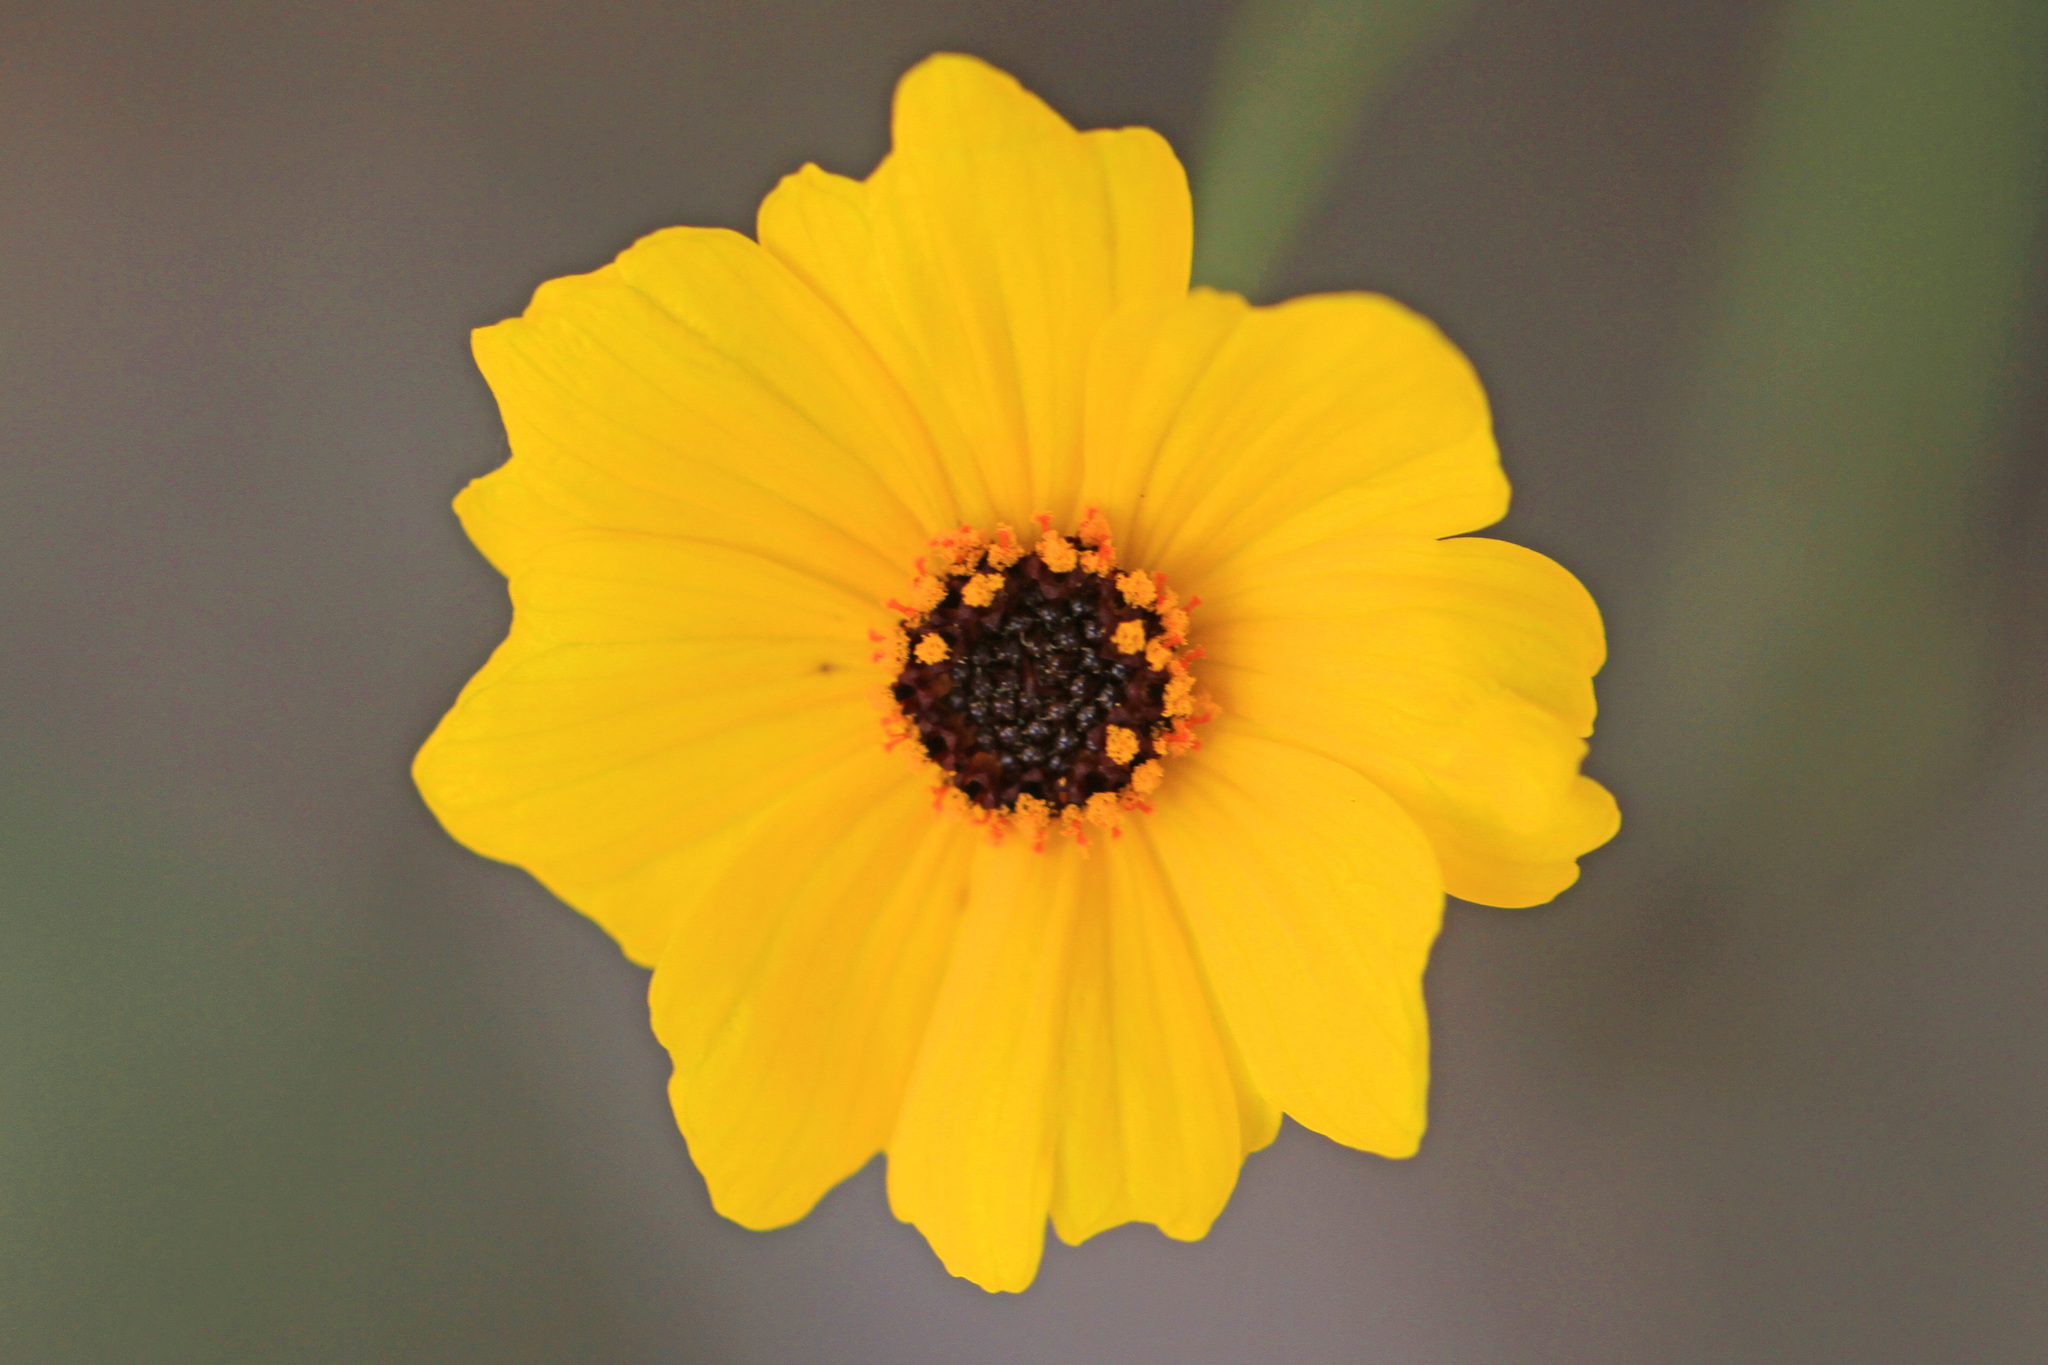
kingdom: Plantae
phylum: Tracheophyta
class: Magnoliopsida
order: Asterales
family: Asteraceae
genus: Coreopsis
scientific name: Coreopsis leavenworthii
